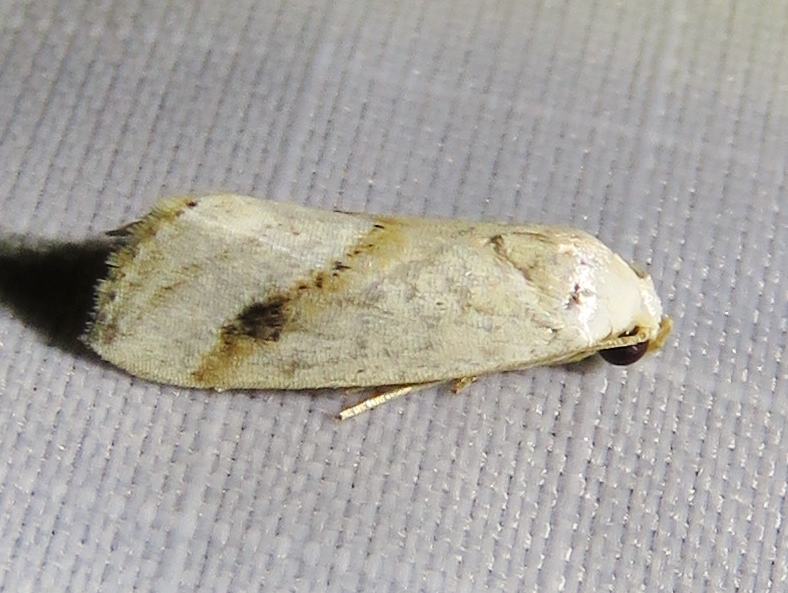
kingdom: Animalia
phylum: Arthropoda
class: Insecta
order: Lepidoptera
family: Noctuidae
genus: Micrathetis
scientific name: Micrathetis tecnion
